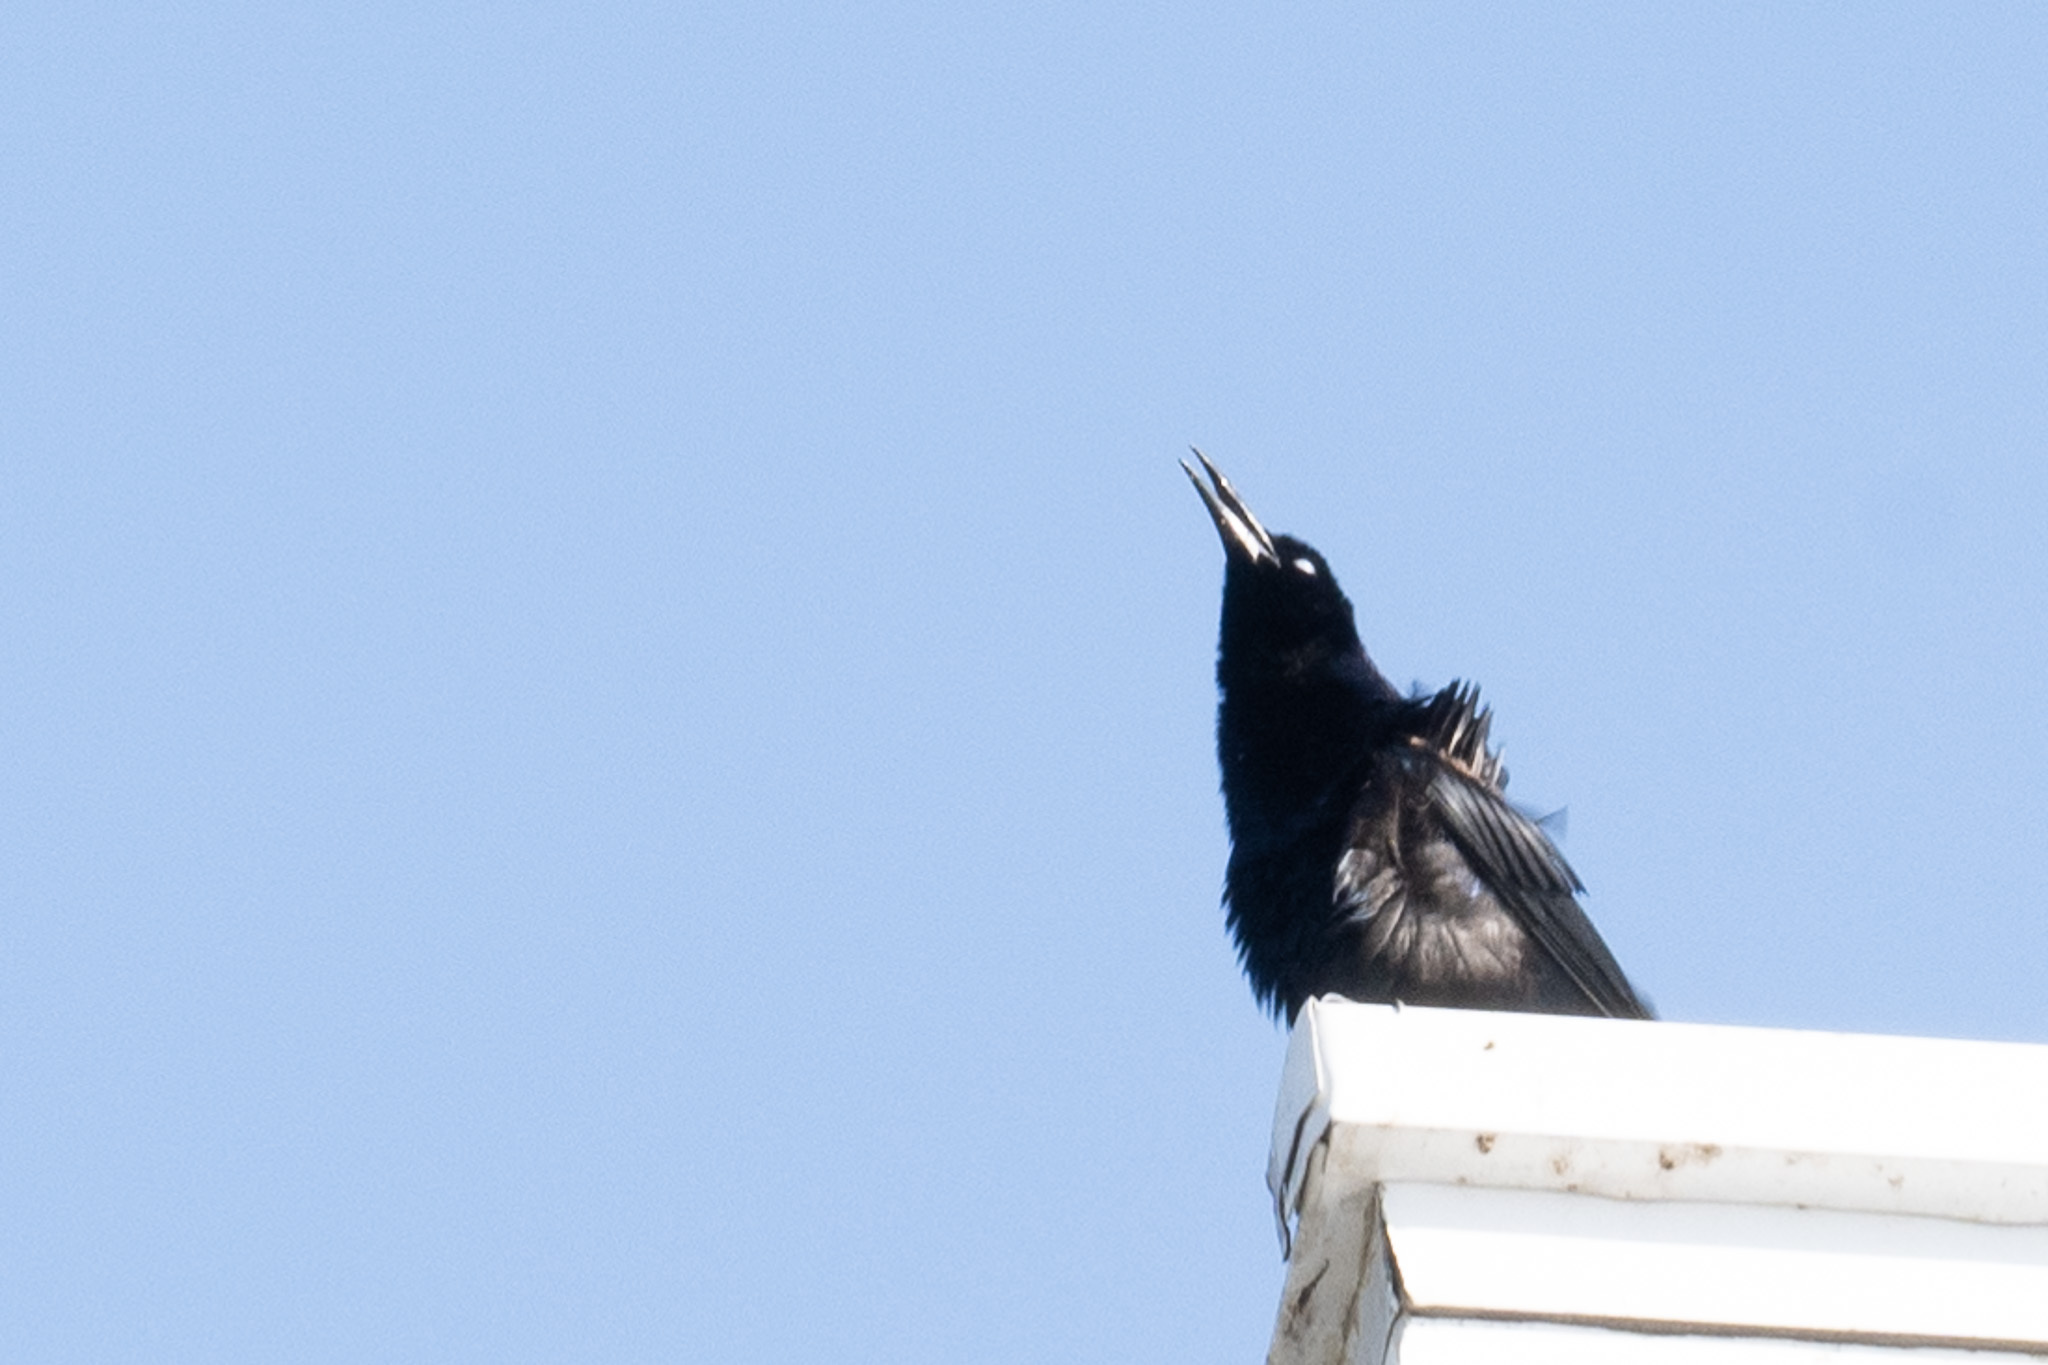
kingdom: Animalia
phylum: Chordata
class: Aves
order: Passeriformes
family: Icteridae
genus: Quiscalus
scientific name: Quiscalus mexicanus
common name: Great-tailed grackle
